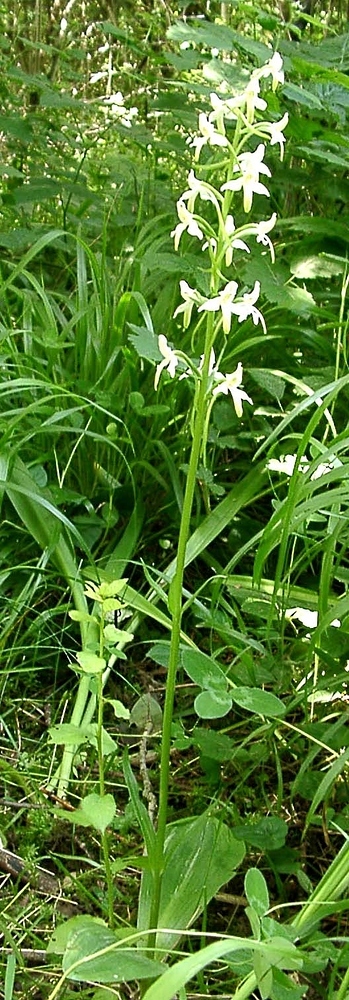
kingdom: Plantae
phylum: Tracheophyta
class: Liliopsida
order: Asparagales
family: Orchidaceae
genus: Platanthera
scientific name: Platanthera bifolia
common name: Lesser butterfly-orchid
